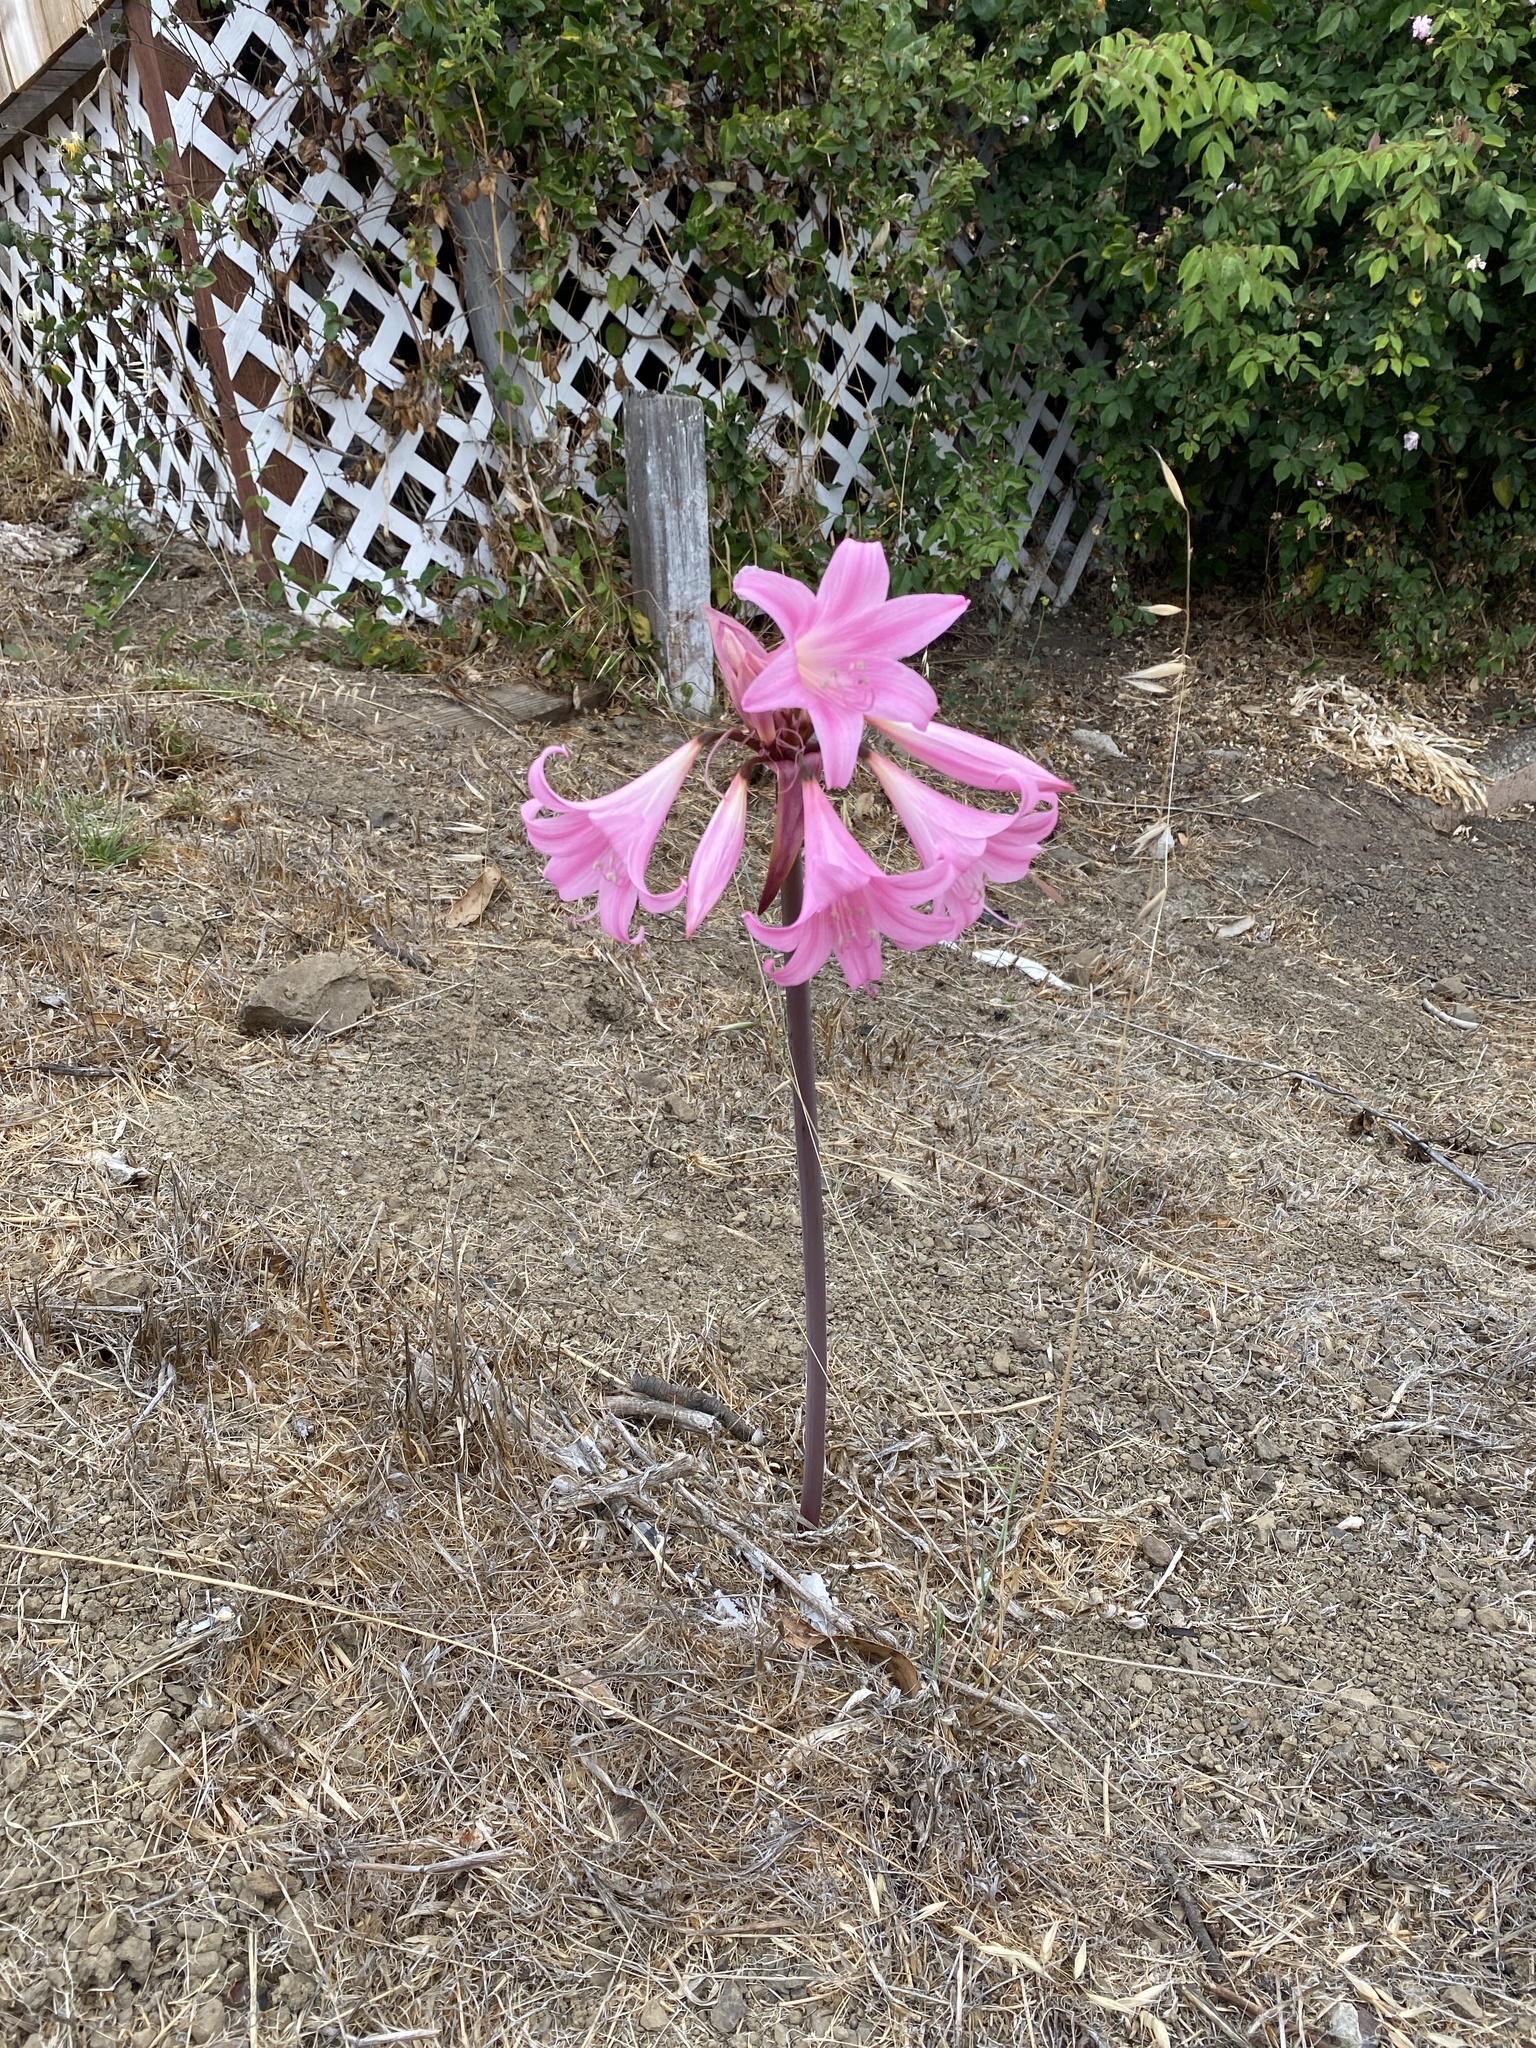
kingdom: Plantae
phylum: Tracheophyta
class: Liliopsida
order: Asparagales
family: Amaryllidaceae
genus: Amaryllis
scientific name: Amaryllis belladonna
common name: Jersey lily
